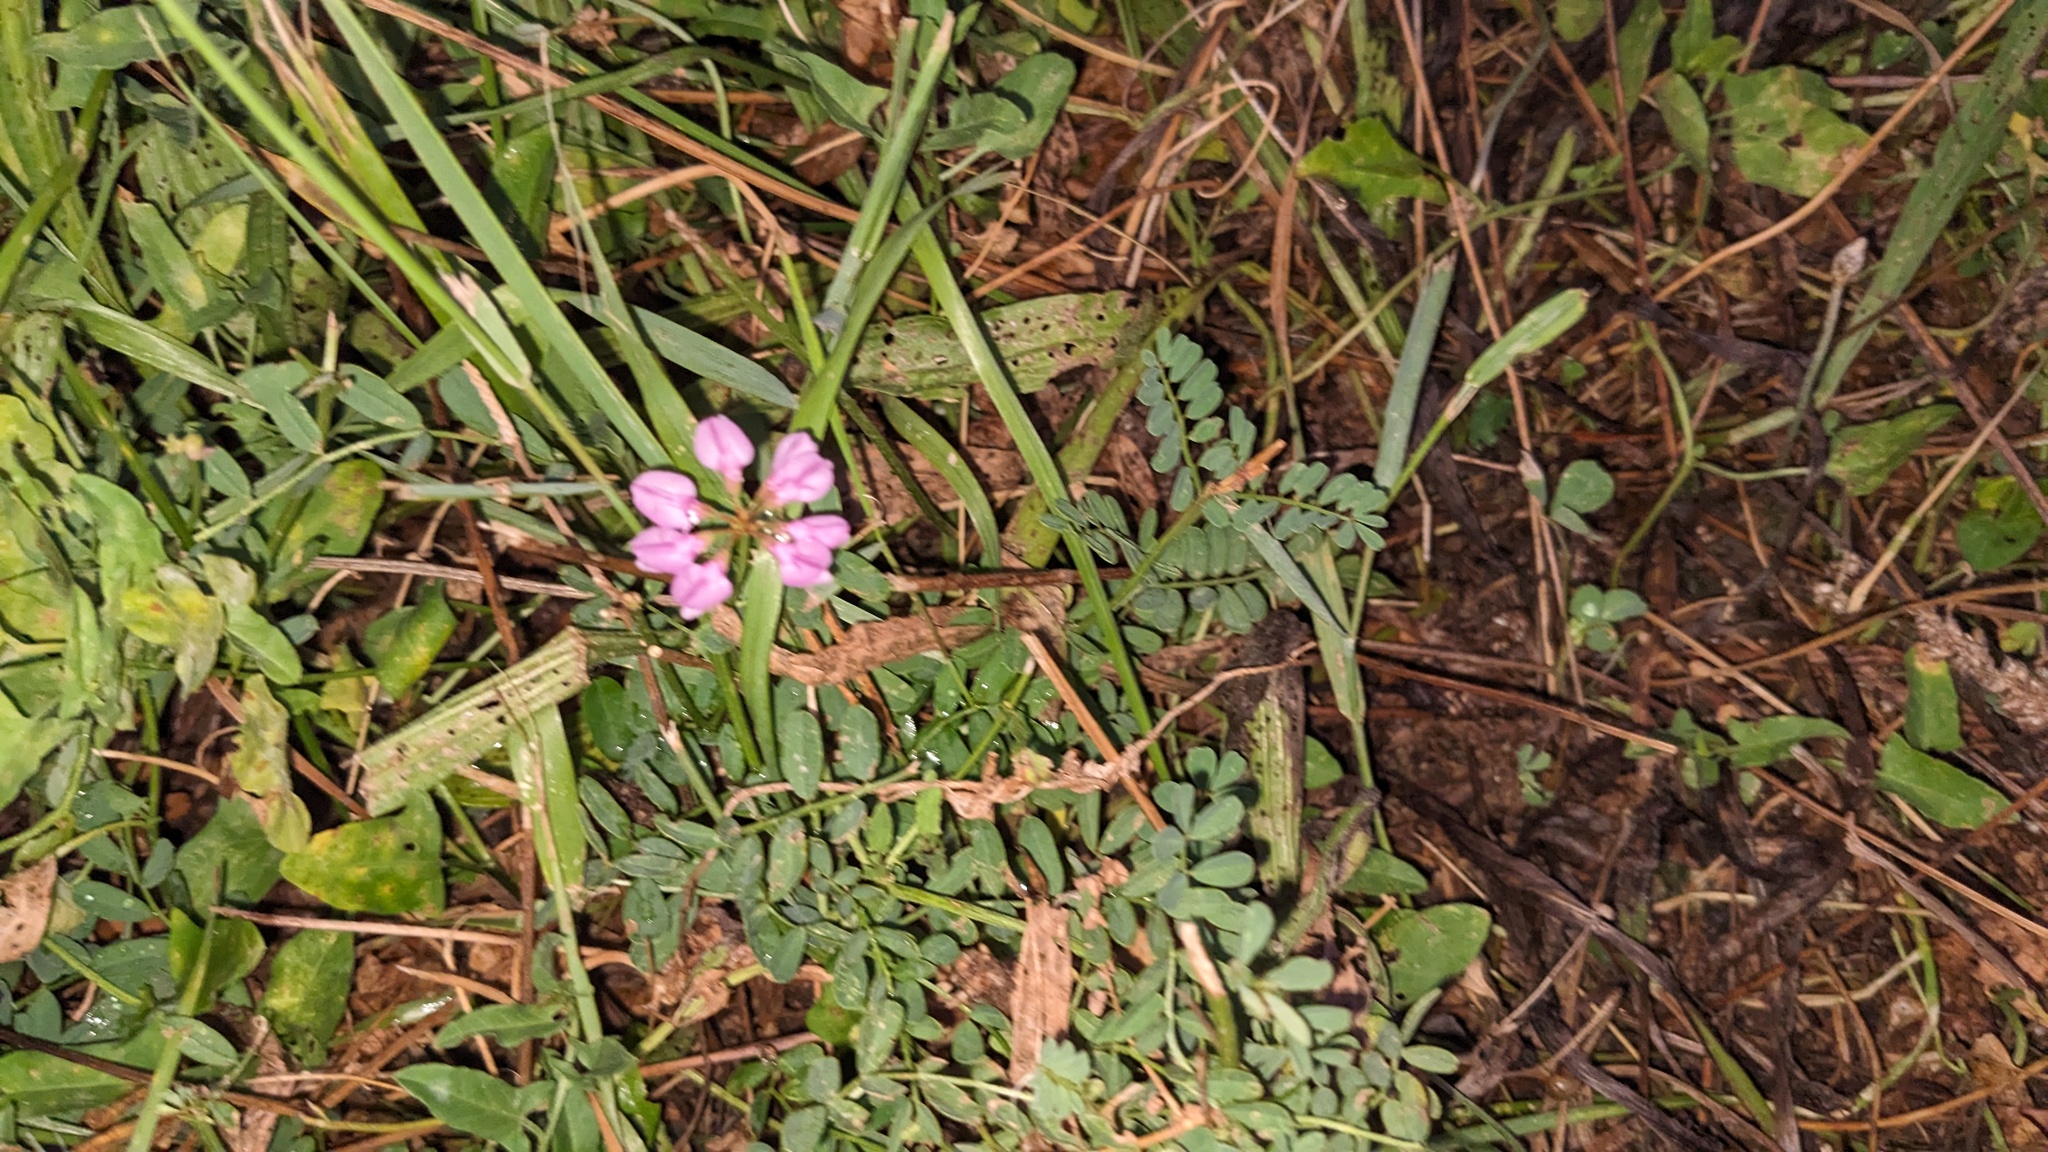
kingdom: Plantae
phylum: Tracheophyta
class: Magnoliopsida
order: Fabales
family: Fabaceae
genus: Coronilla
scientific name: Coronilla varia
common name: Crownvetch
